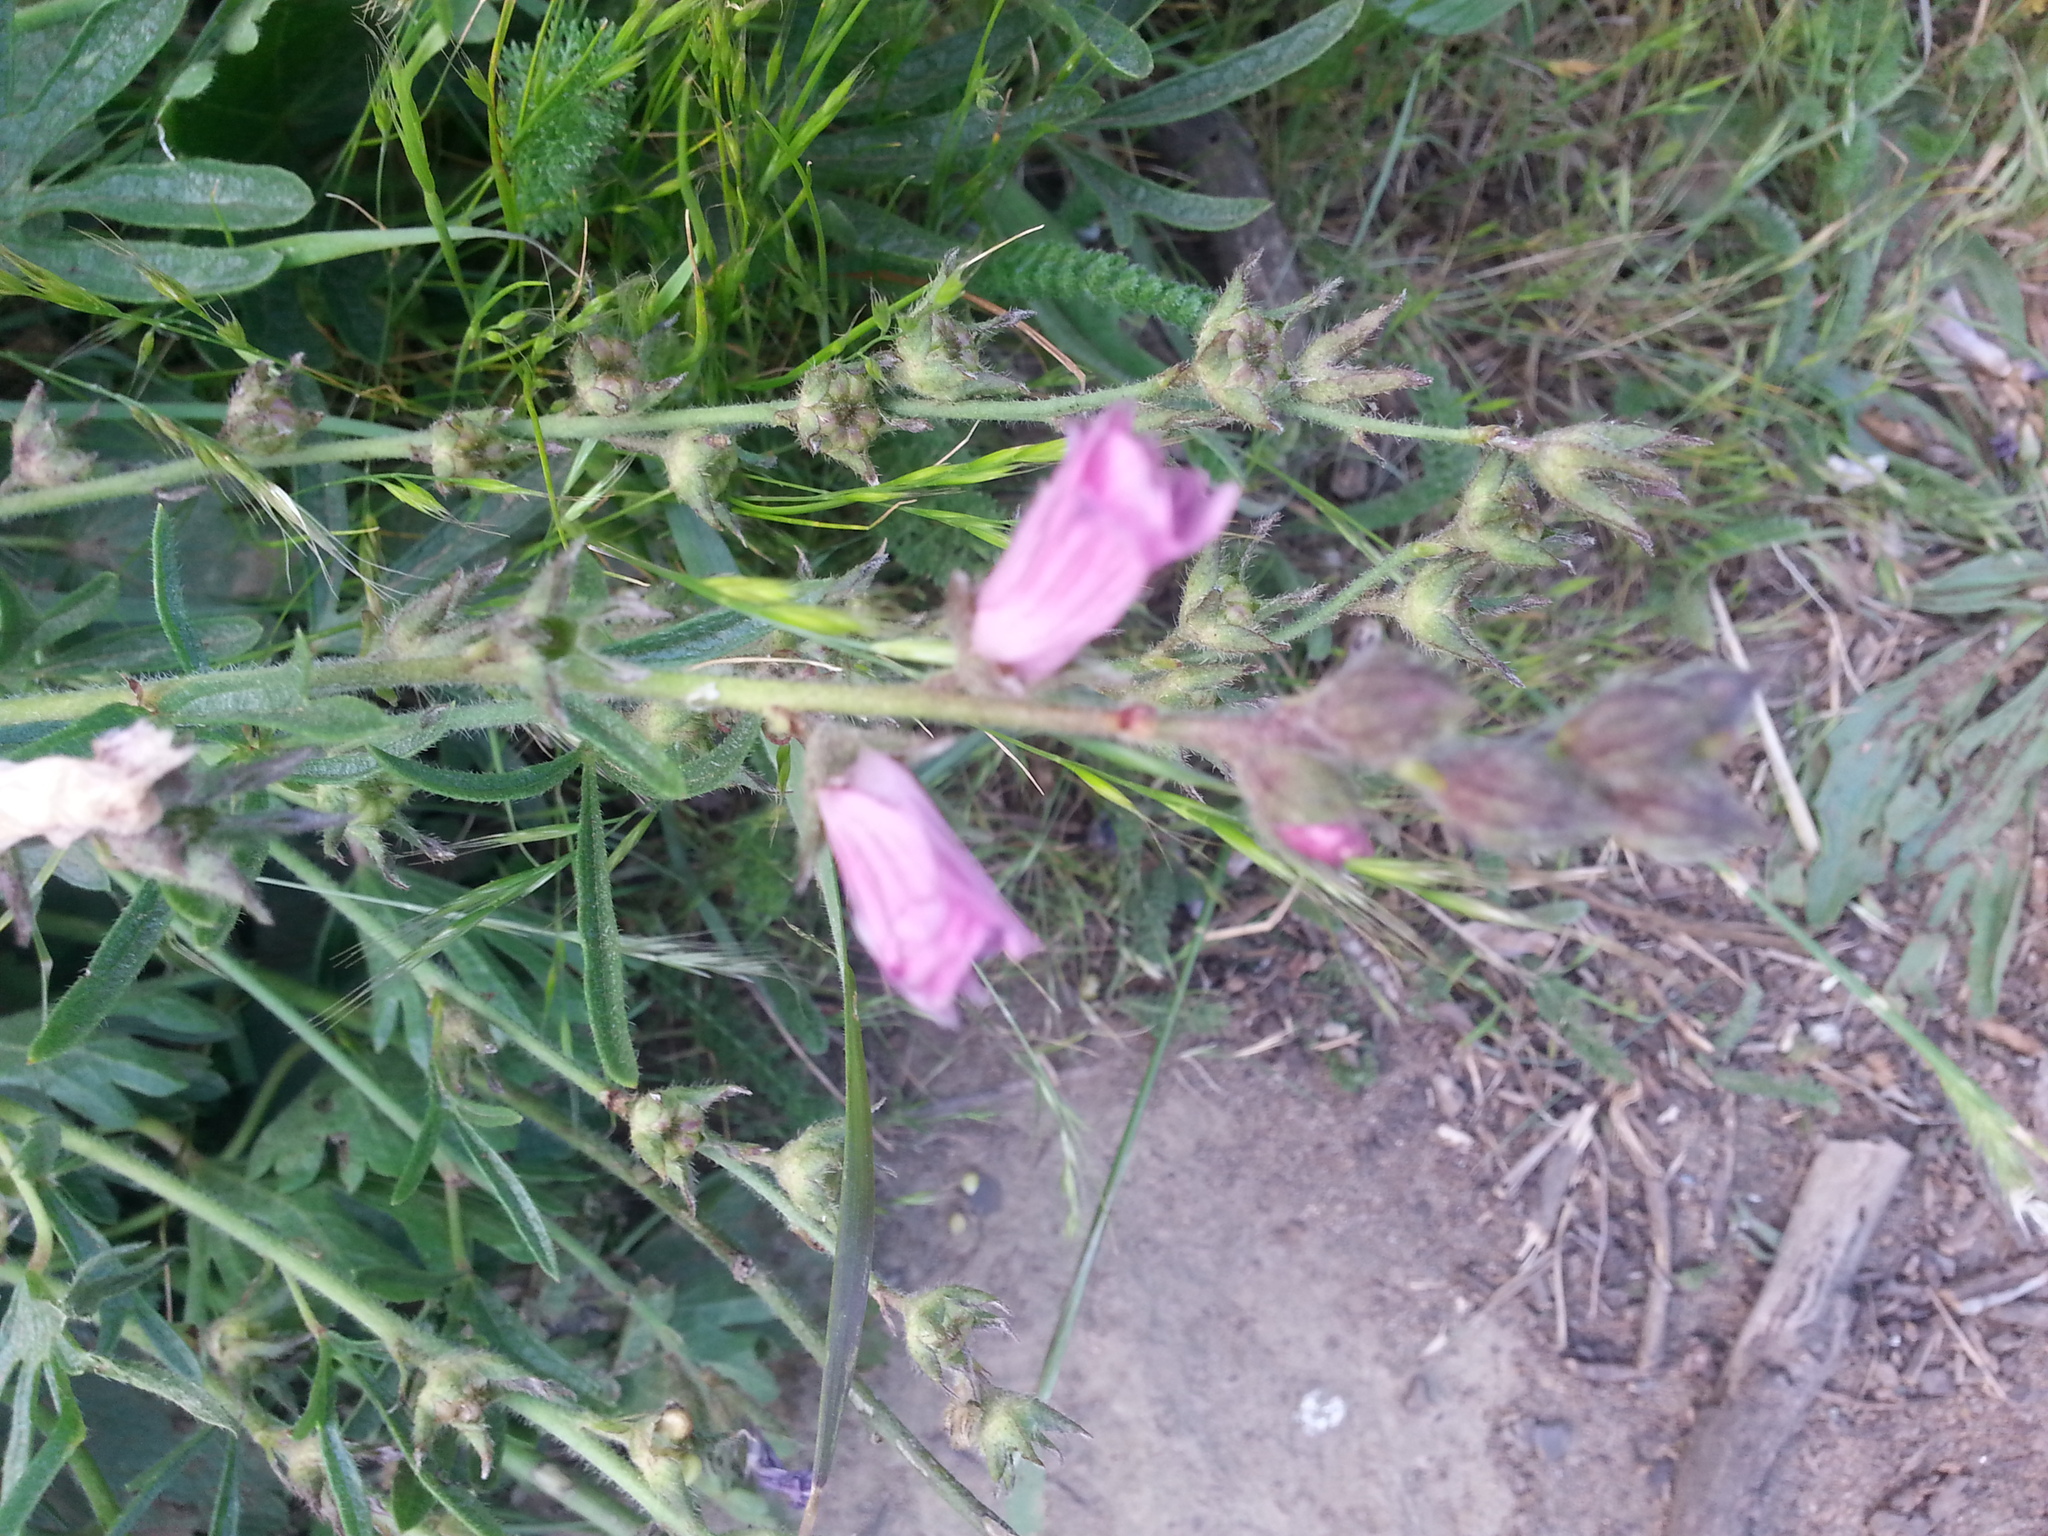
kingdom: Plantae
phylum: Tracheophyta
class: Magnoliopsida
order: Malvales
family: Malvaceae
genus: Sidalcea
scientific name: Sidalcea malviflora
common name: Greek mallow
